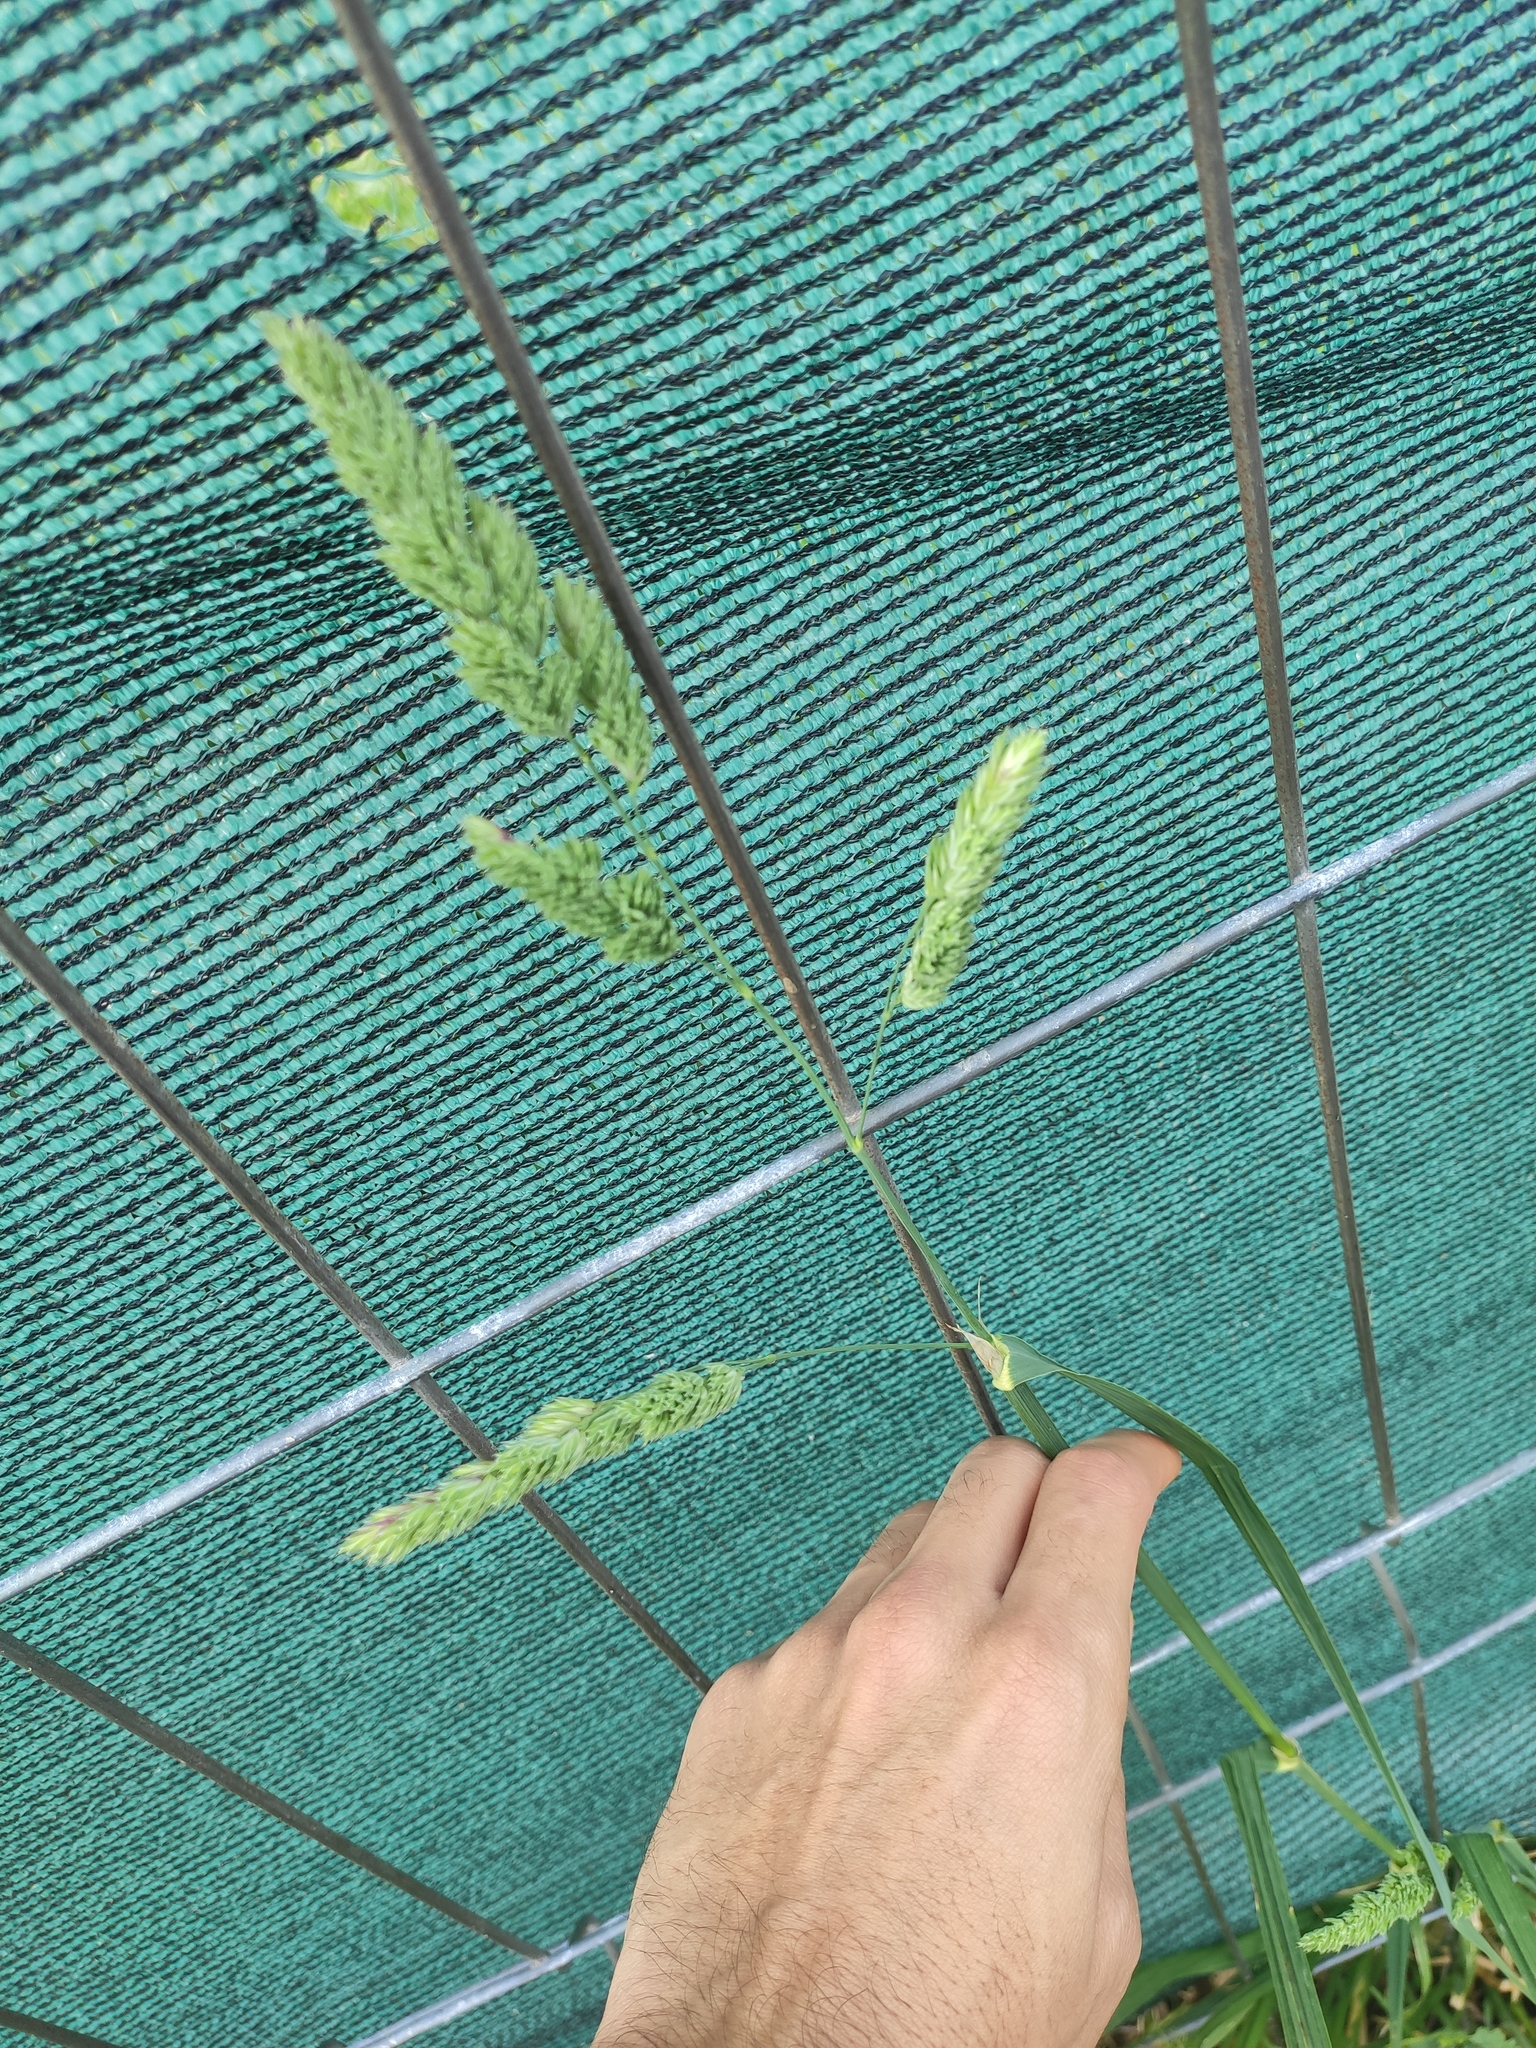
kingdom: Plantae
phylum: Tracheophyta
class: Liliopsida
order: Poales
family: Poaceae
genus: Dactylis
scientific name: Dactylis glomerata
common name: Orchardgrass
